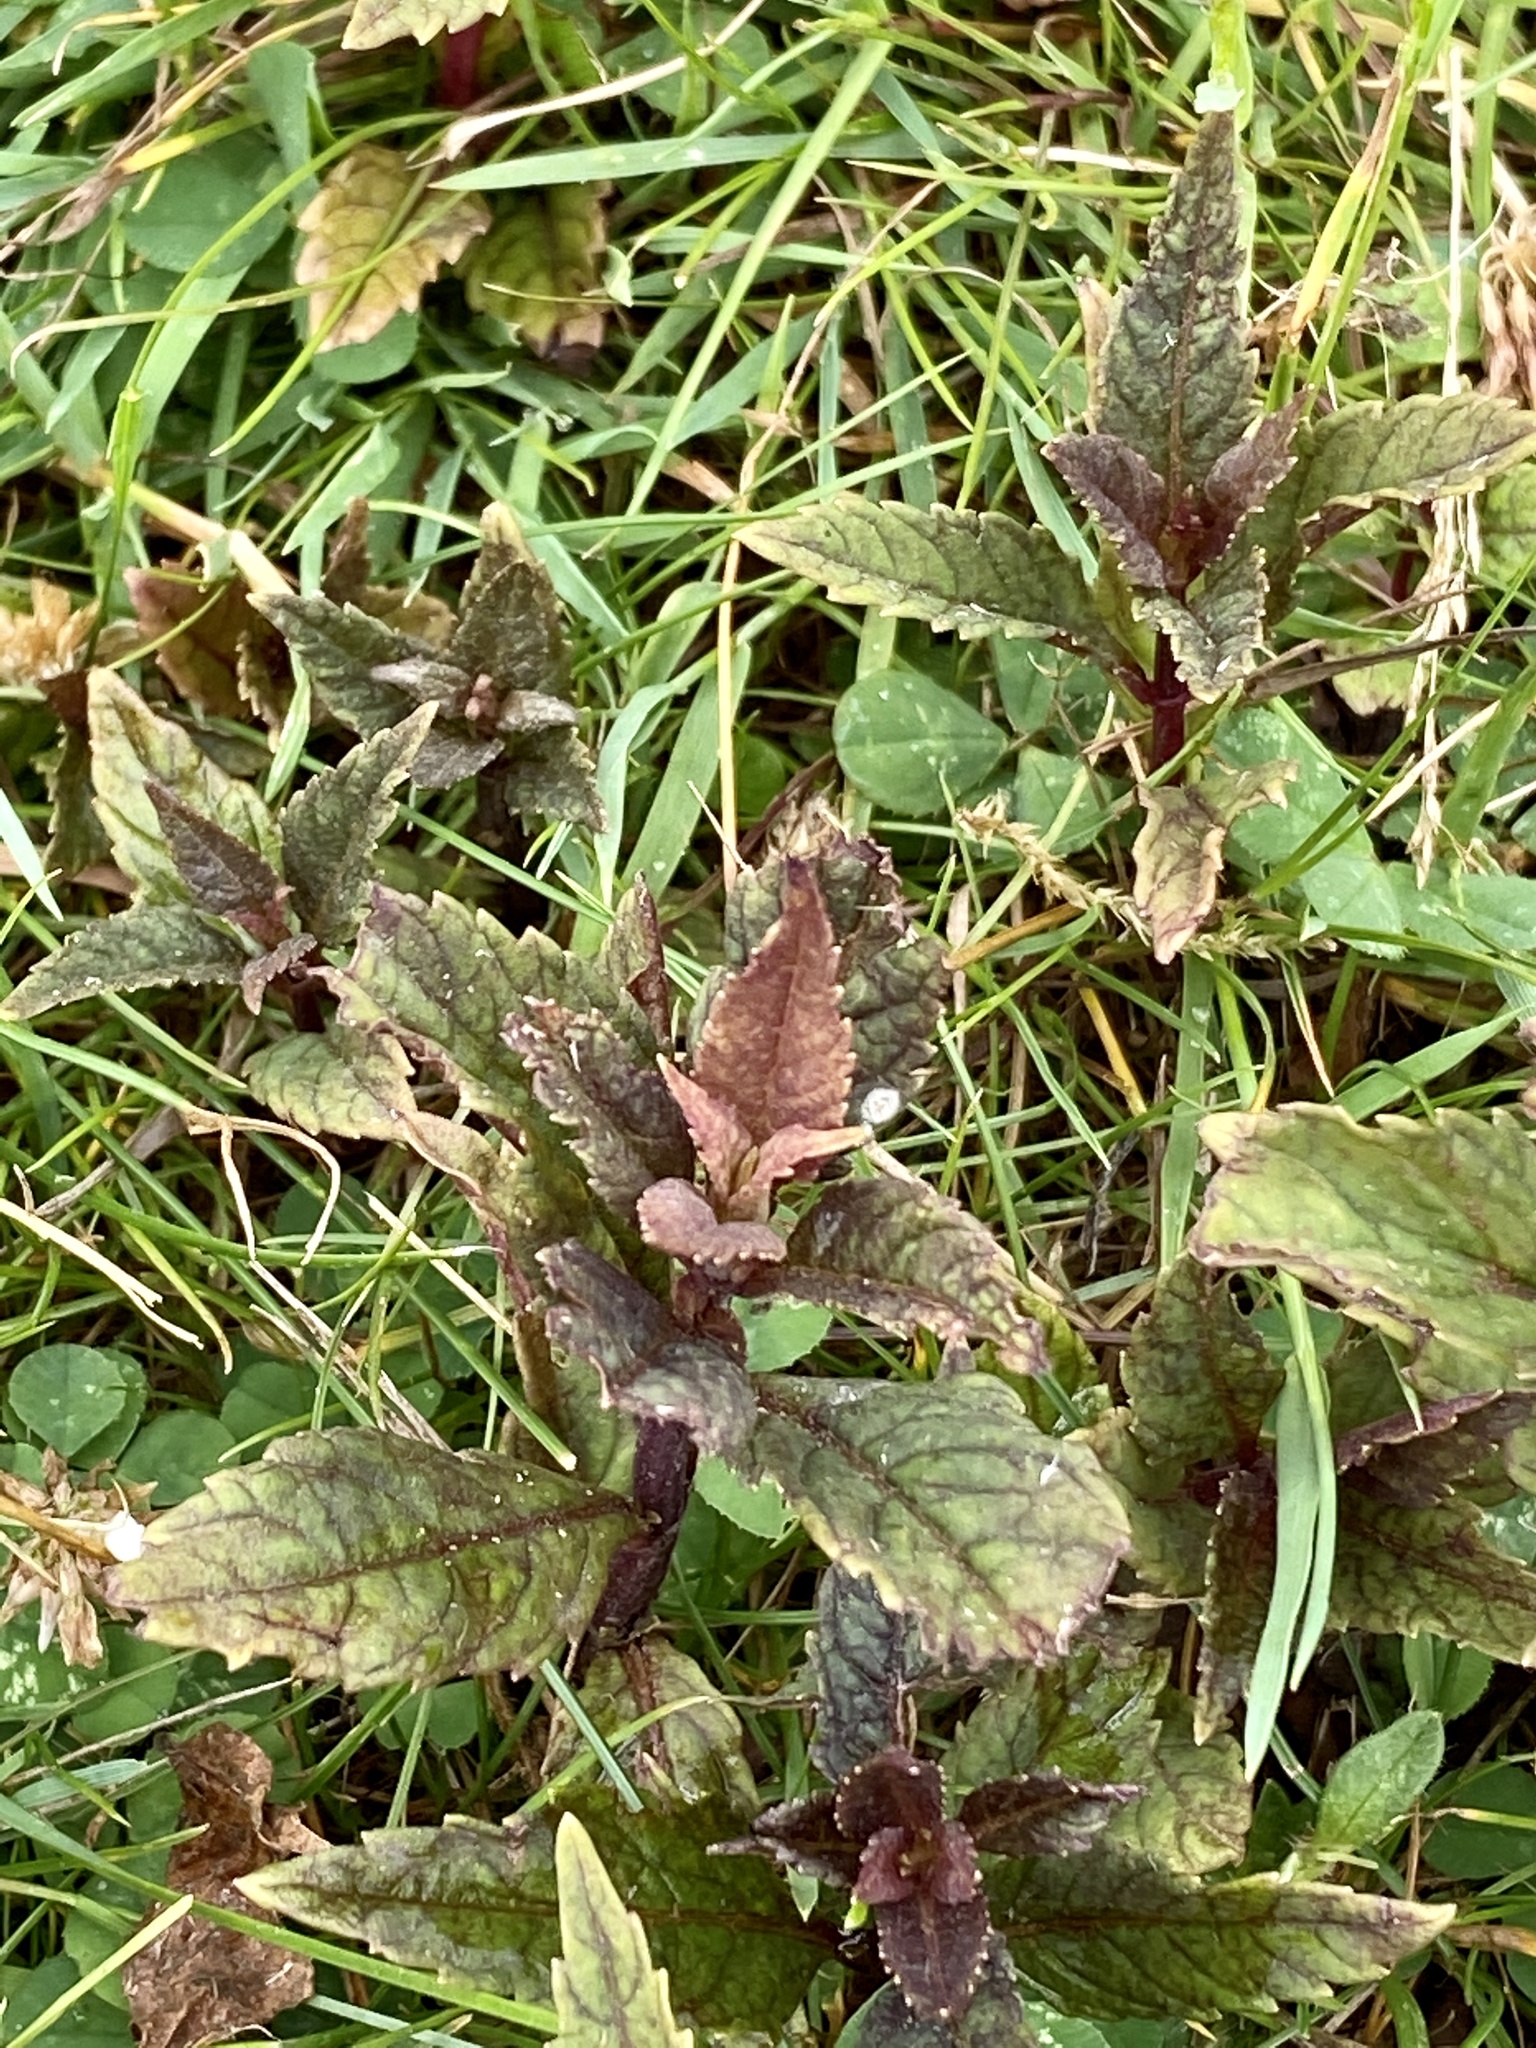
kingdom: Plantae
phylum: Tracheophyta
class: Magnoliopsida
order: Lamiales
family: Lamiaceae
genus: Lycopus
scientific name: Lycopus uniflorus
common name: Northern bugleweed
